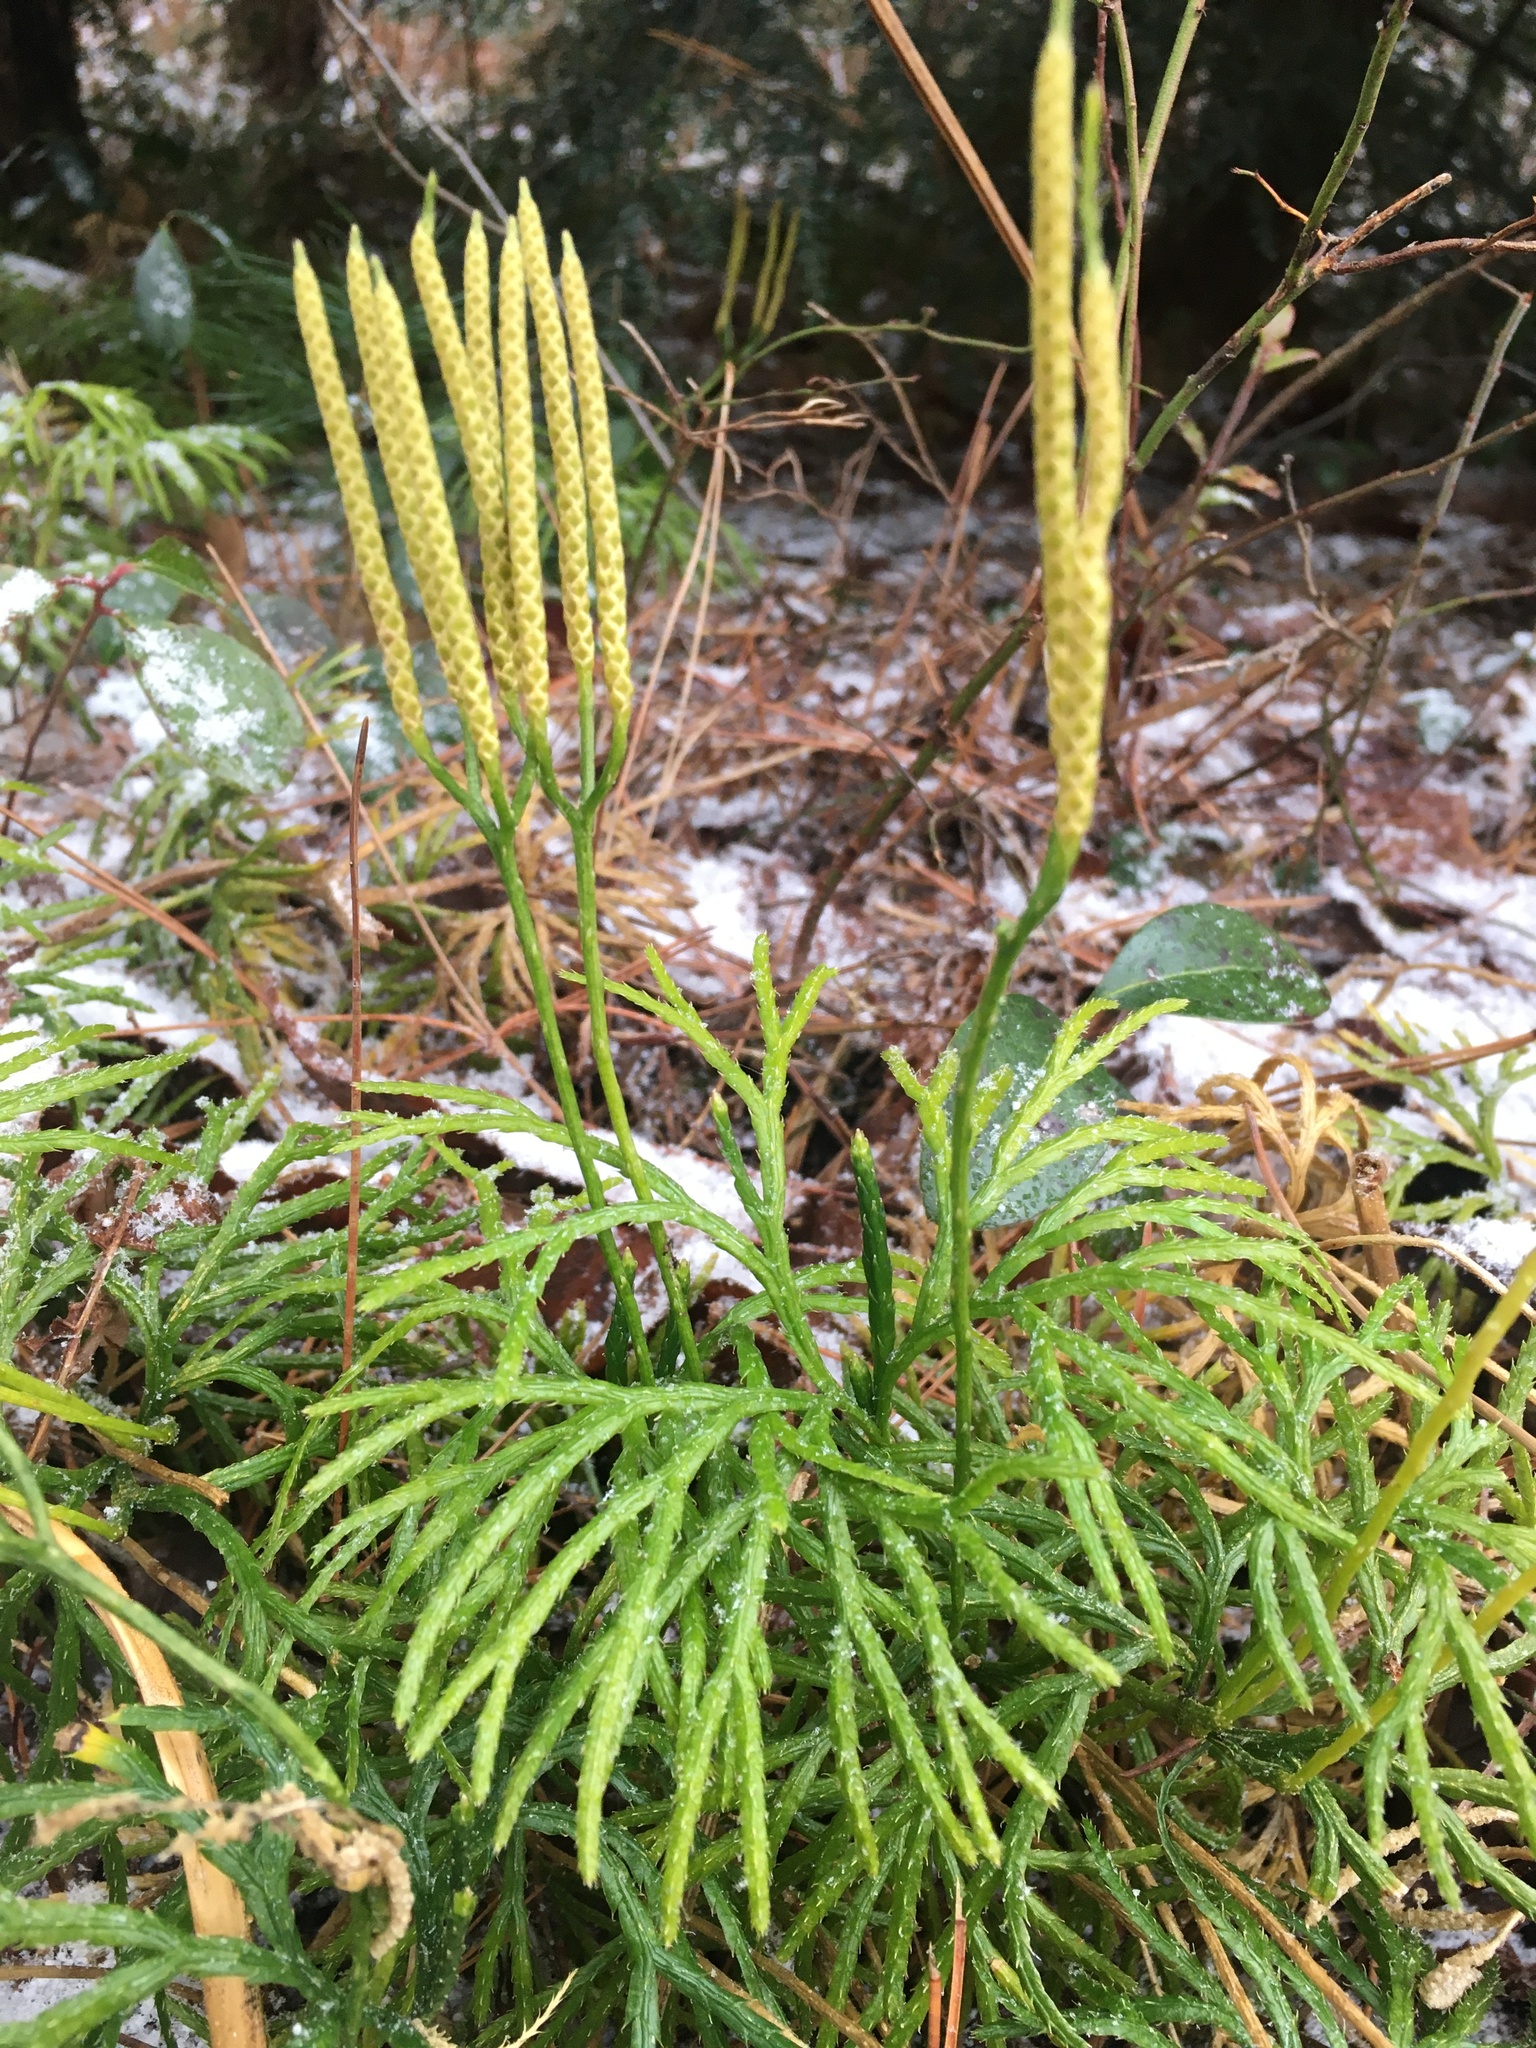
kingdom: Plantae
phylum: Tracheophyta
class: Lycopodiopsida
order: Lycopodiales
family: Lycopodiaceae
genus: Diphasiastrum
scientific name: Diphasiastrum digitatum
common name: Southern running-pine
